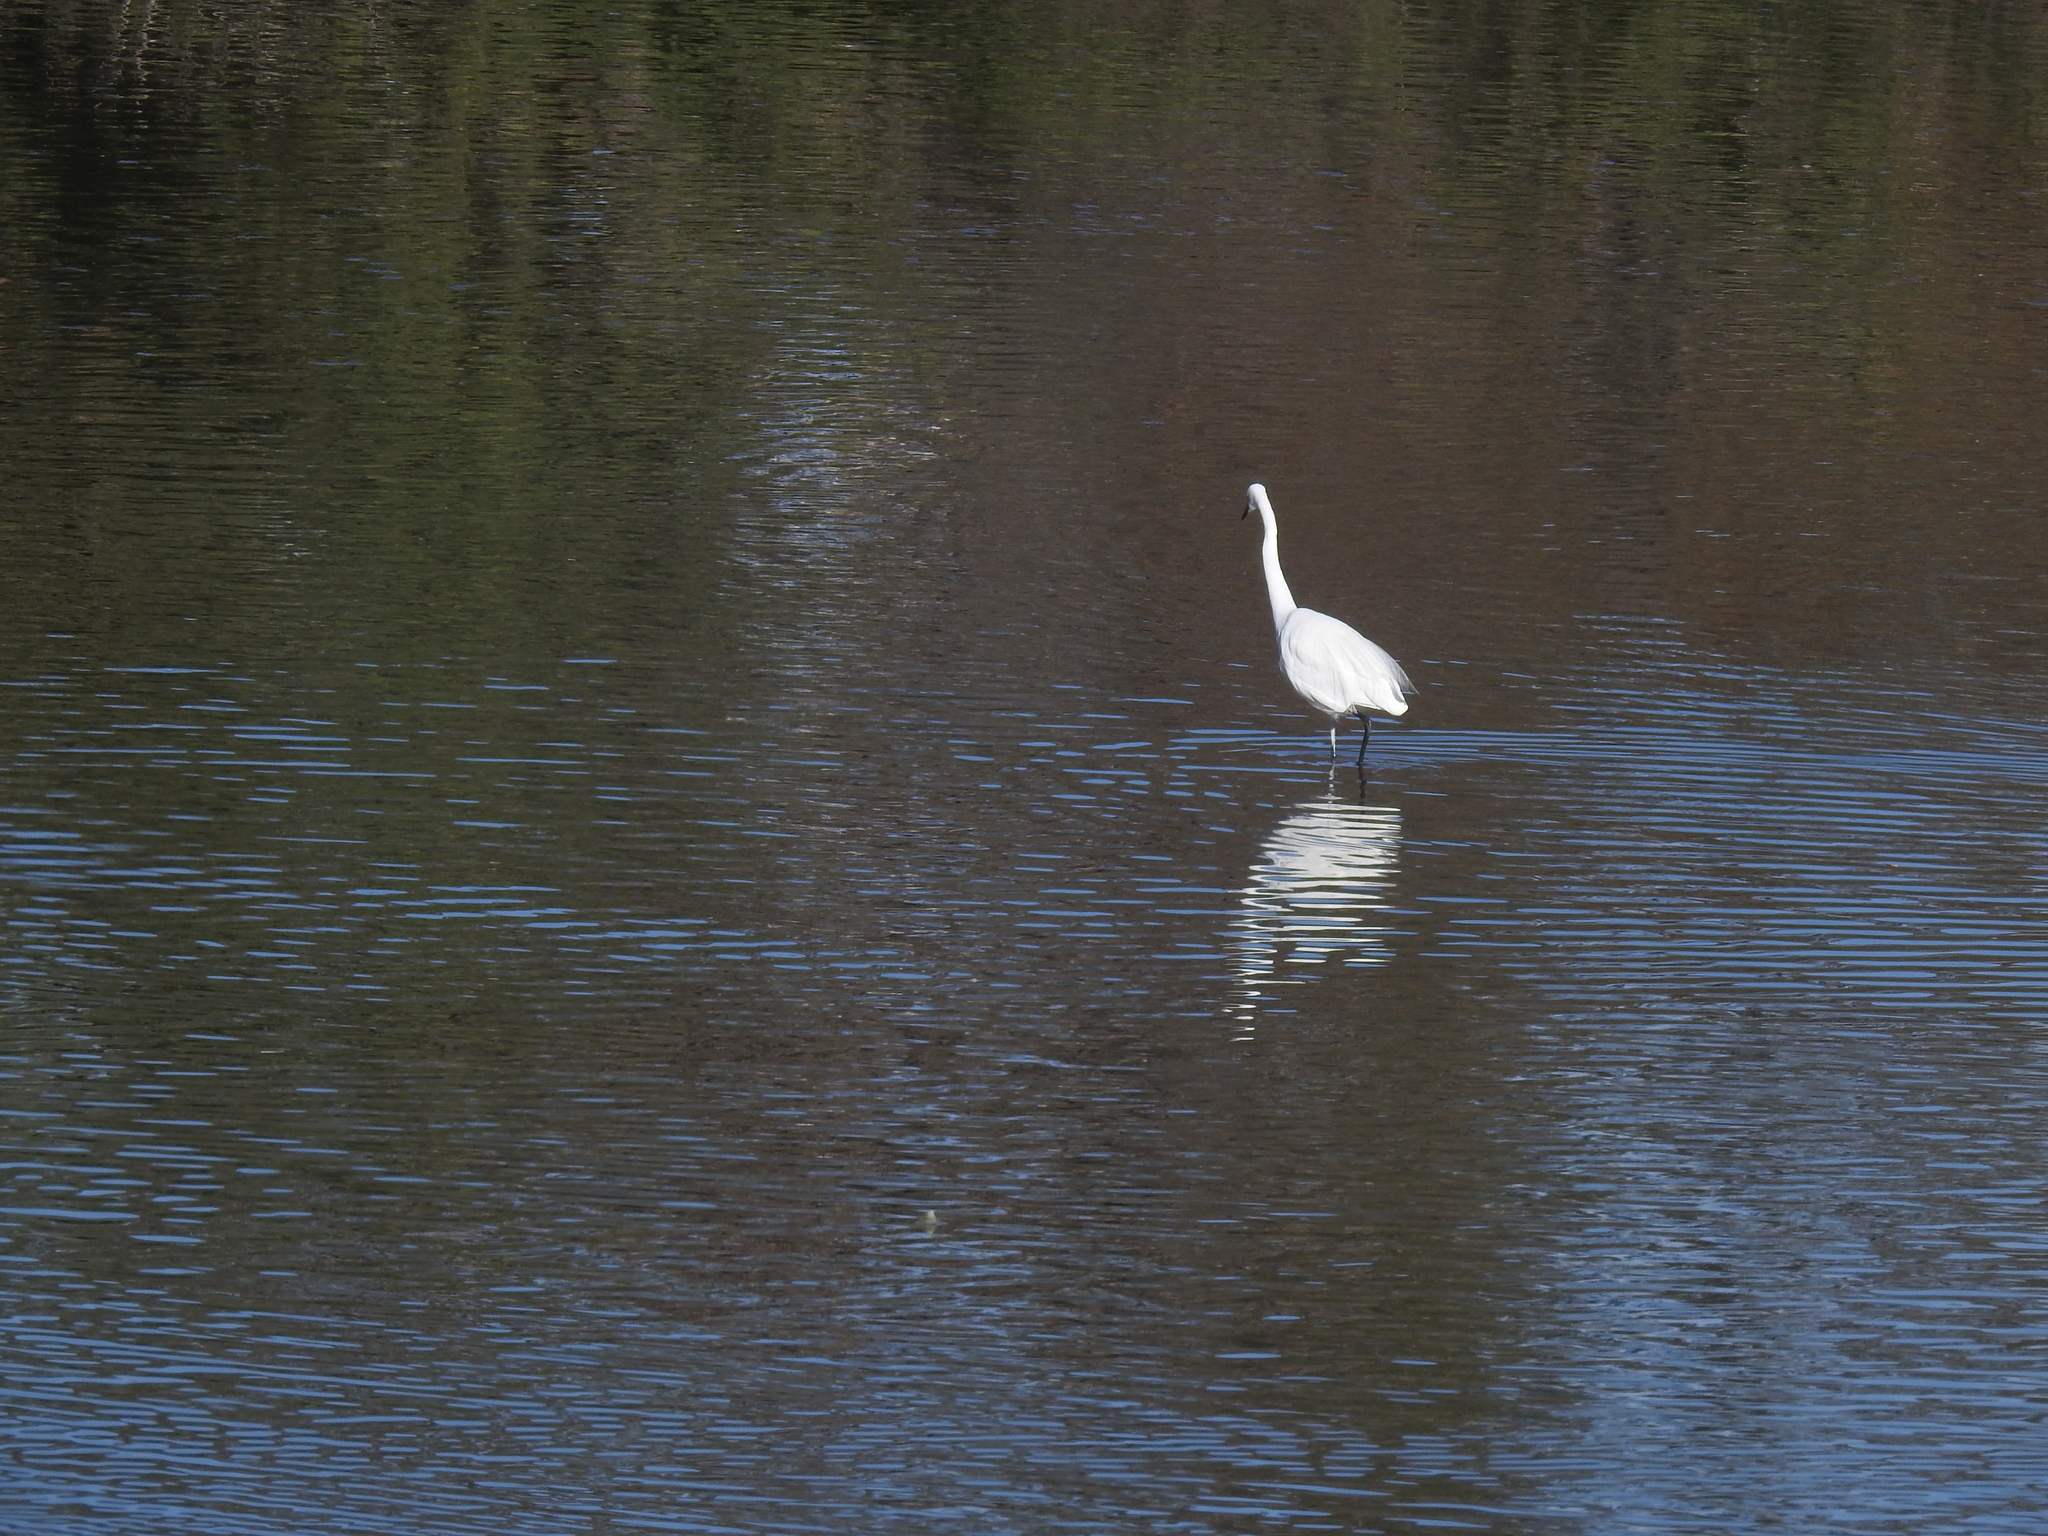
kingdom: Animalia
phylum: Chordata
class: Aves
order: Pelecaniformes
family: Ardeidae
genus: Ardea
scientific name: Ardea alba
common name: Great egret
